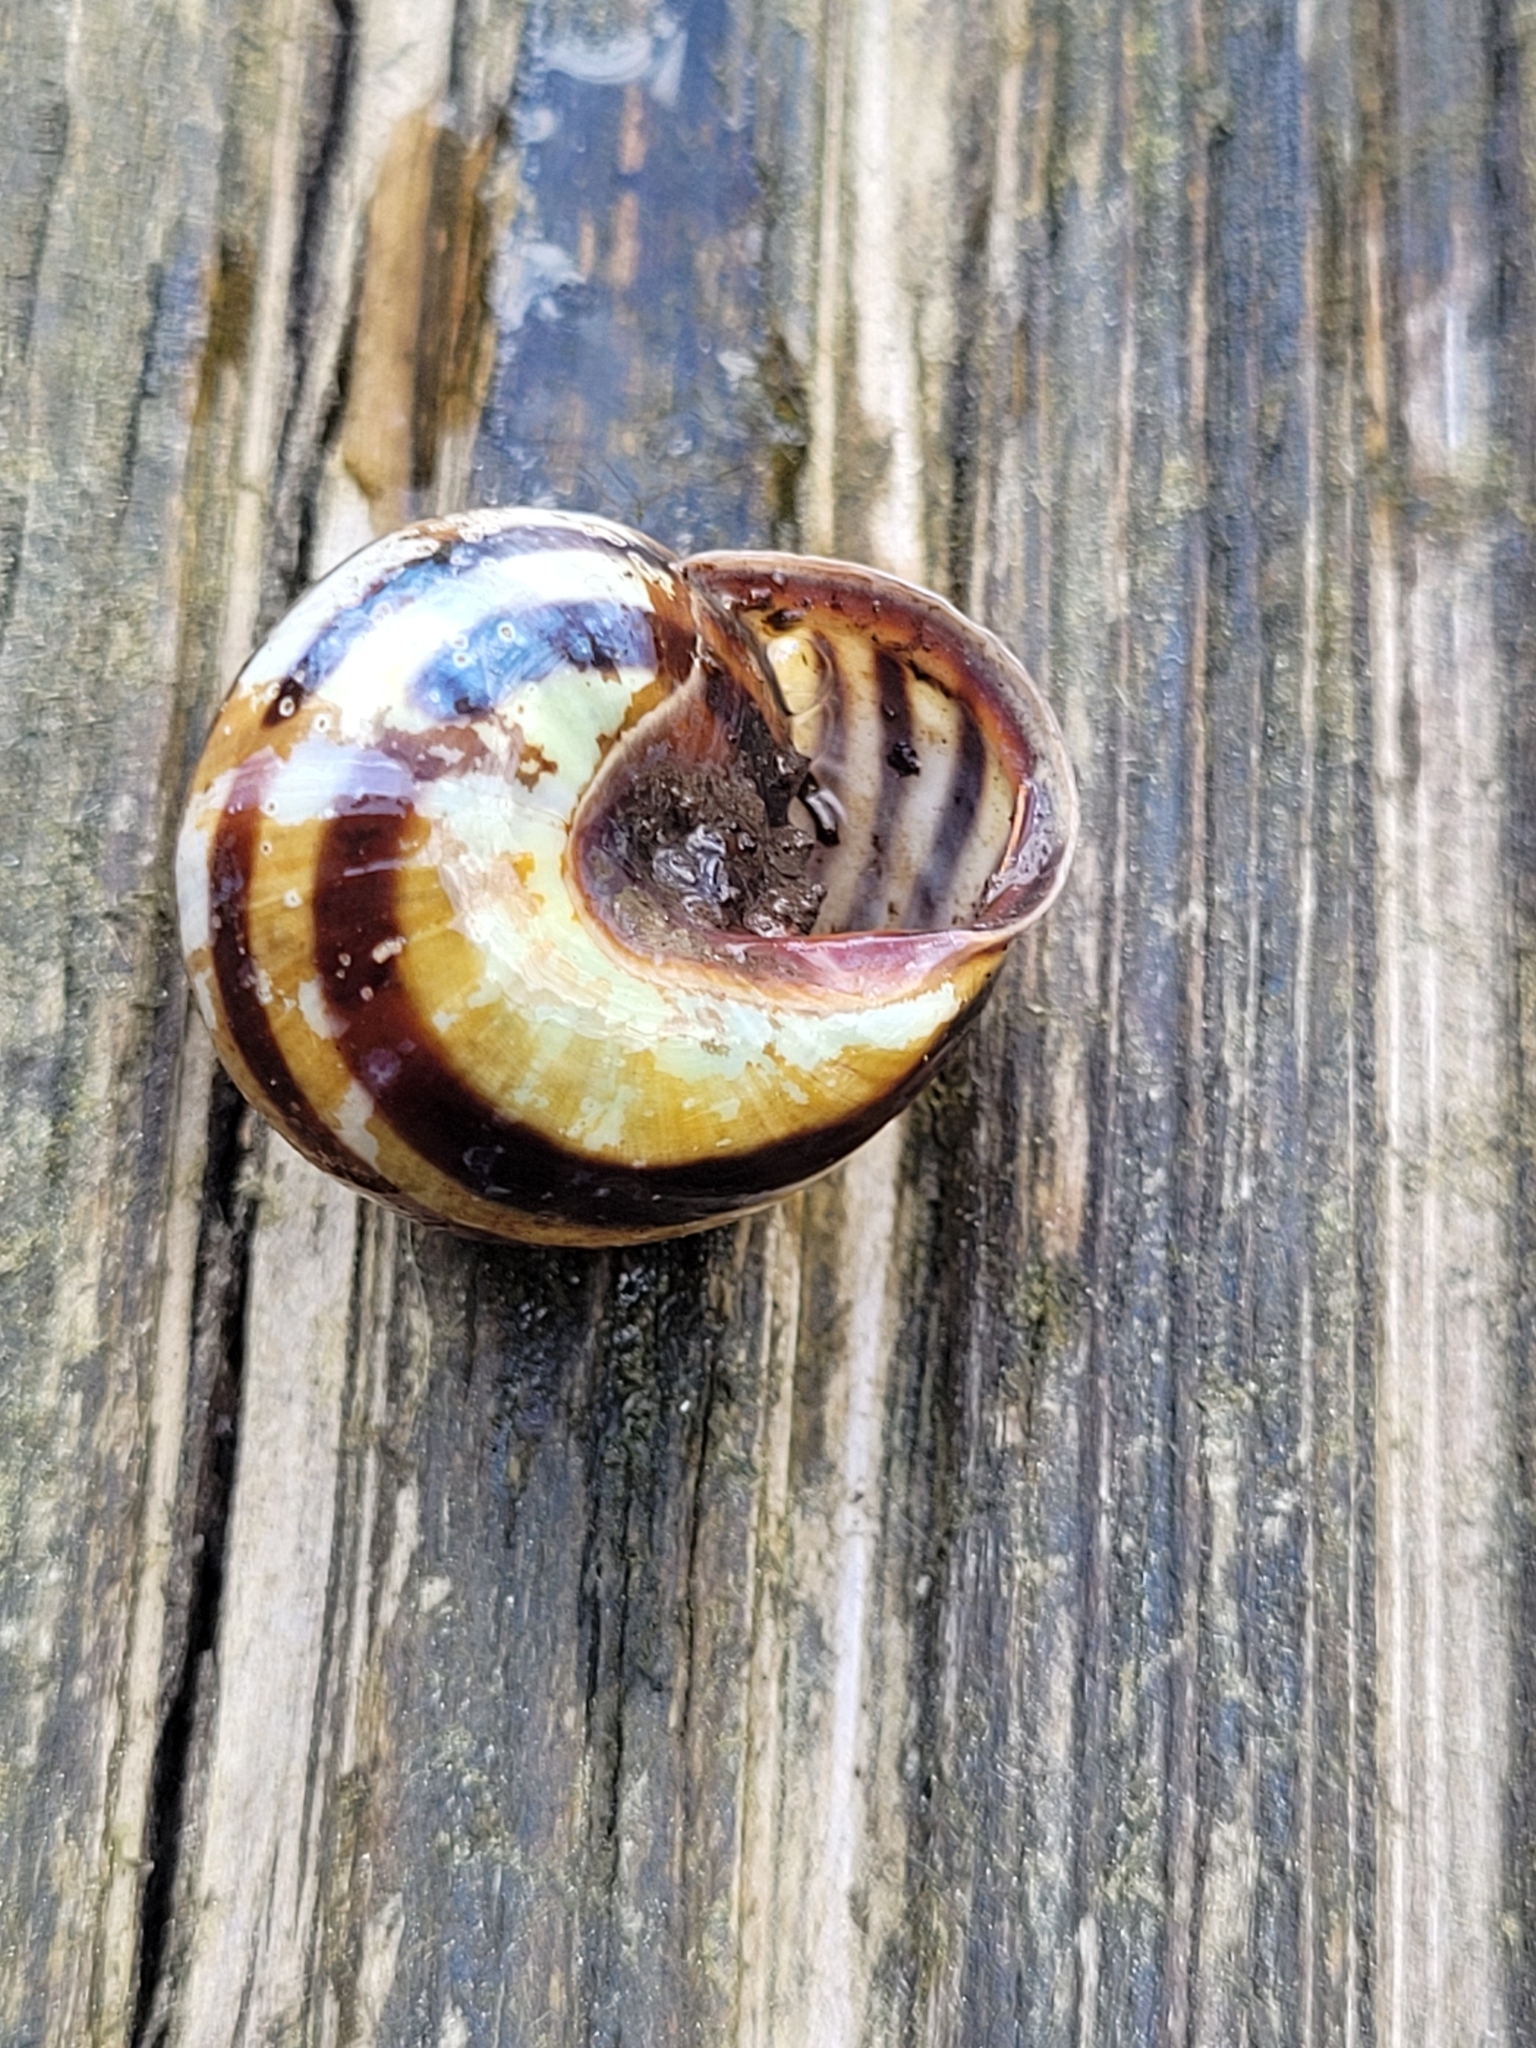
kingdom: Animalia
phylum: Mollusca
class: Gastropoda
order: Stylommatophora
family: Helicidae
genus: Cepaea
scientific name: Cepaea nemoralis
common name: Grovesnail
